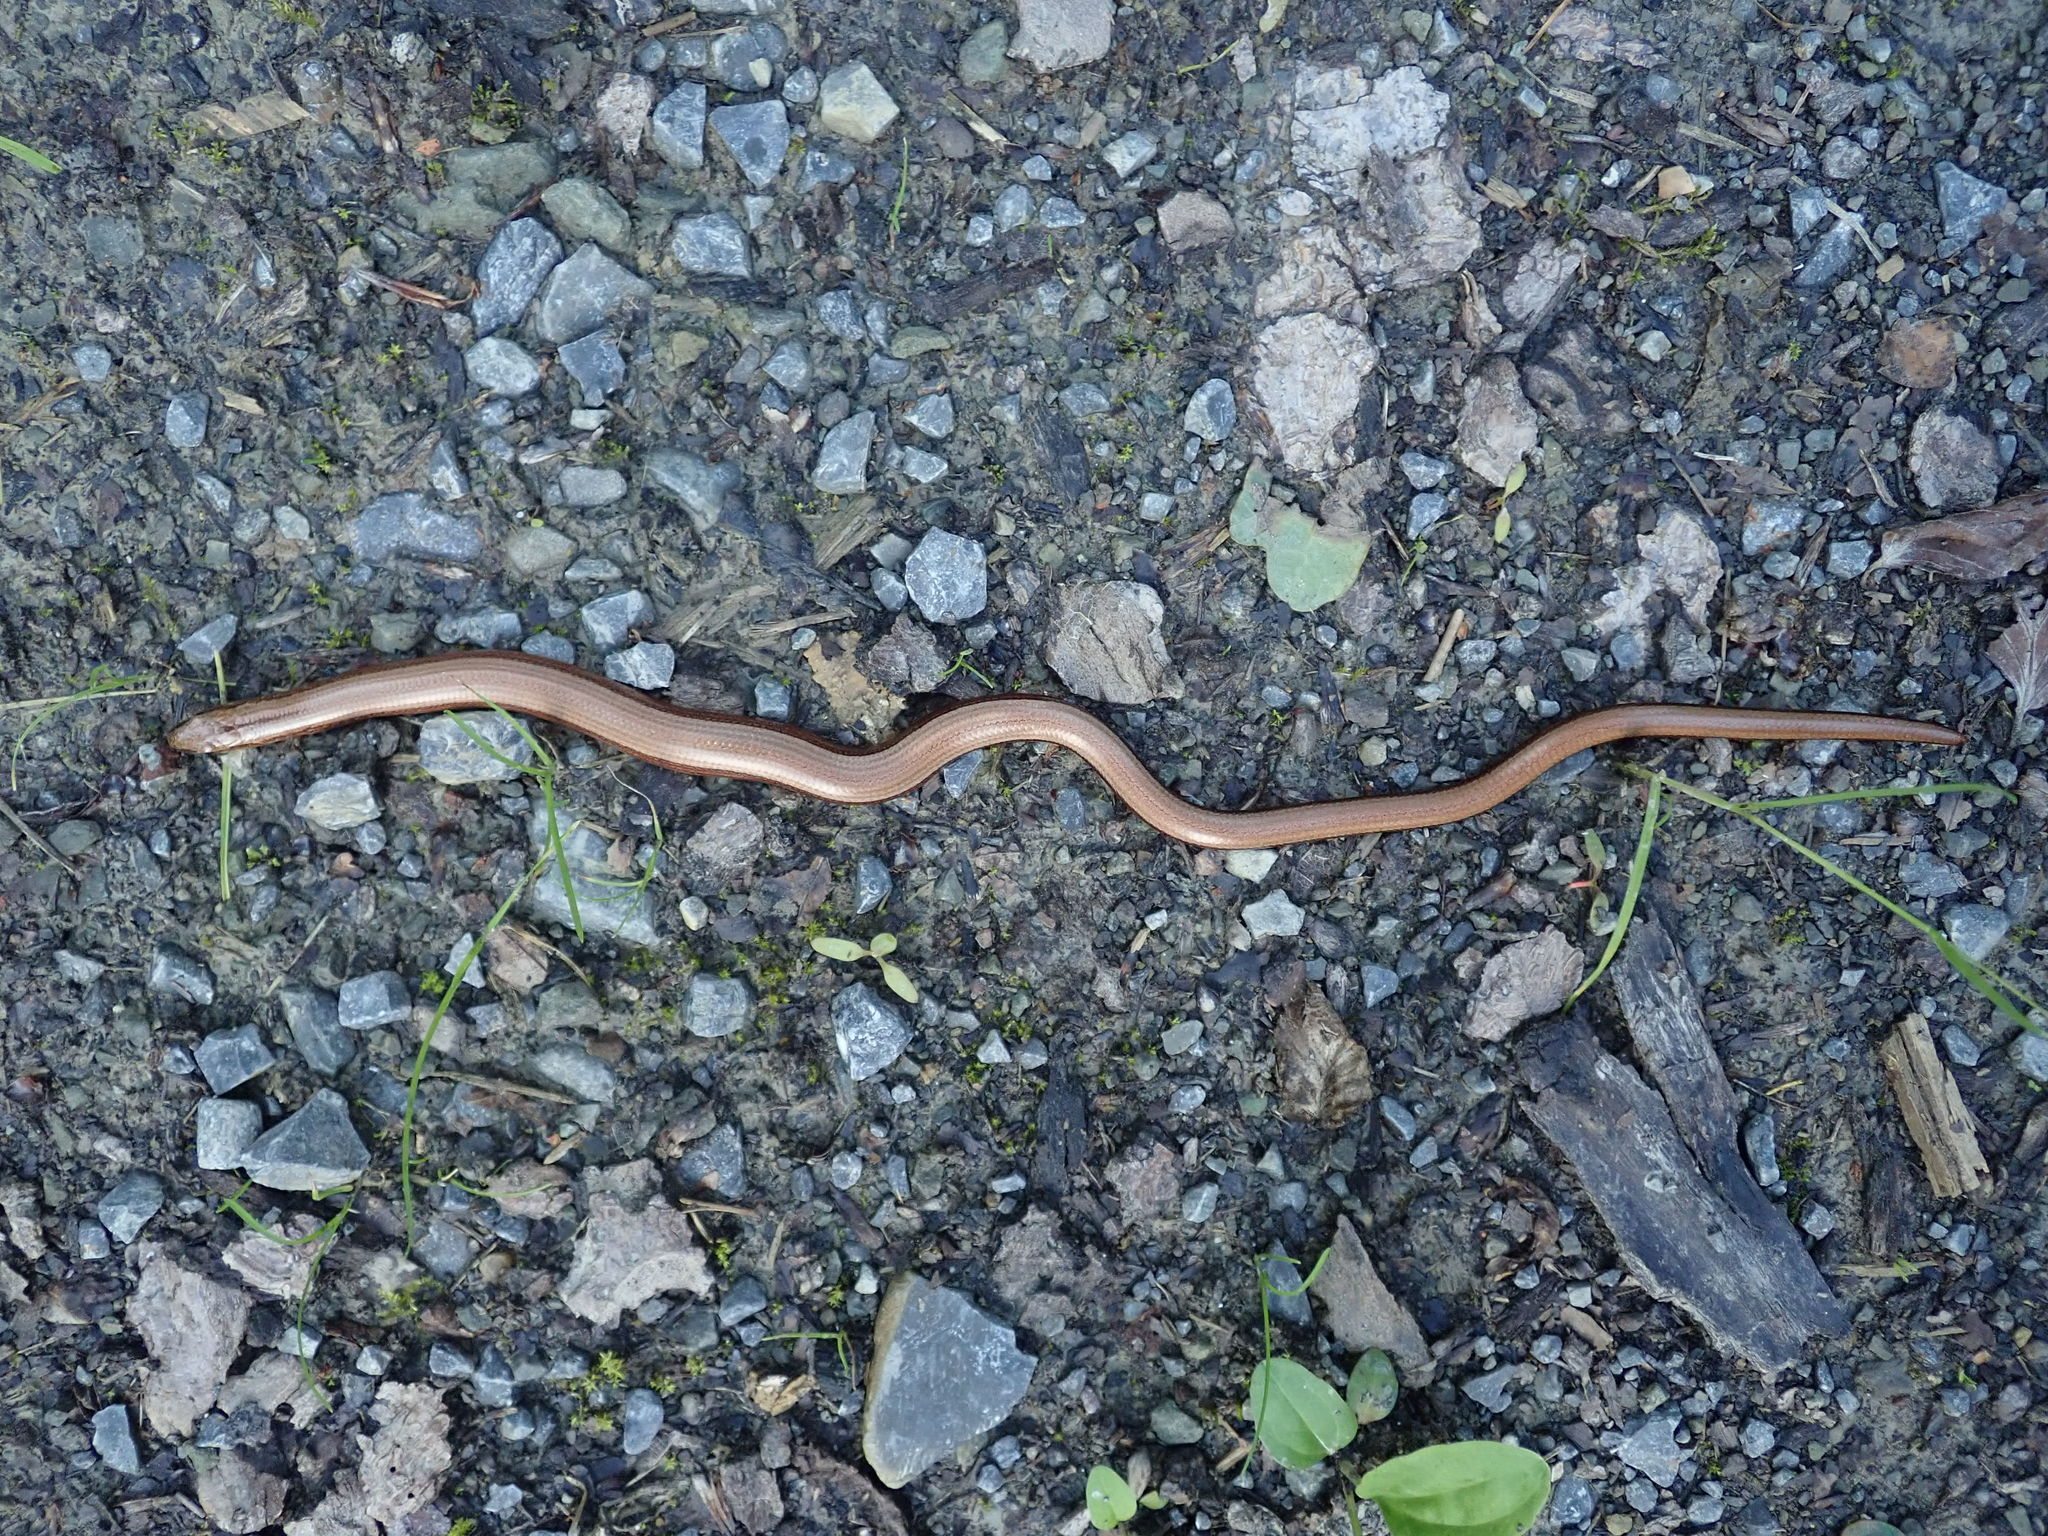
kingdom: Animalia
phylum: Chordata
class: Squamata
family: Anguidae
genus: Anguis
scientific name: Anguis fragilis
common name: Slow worm
